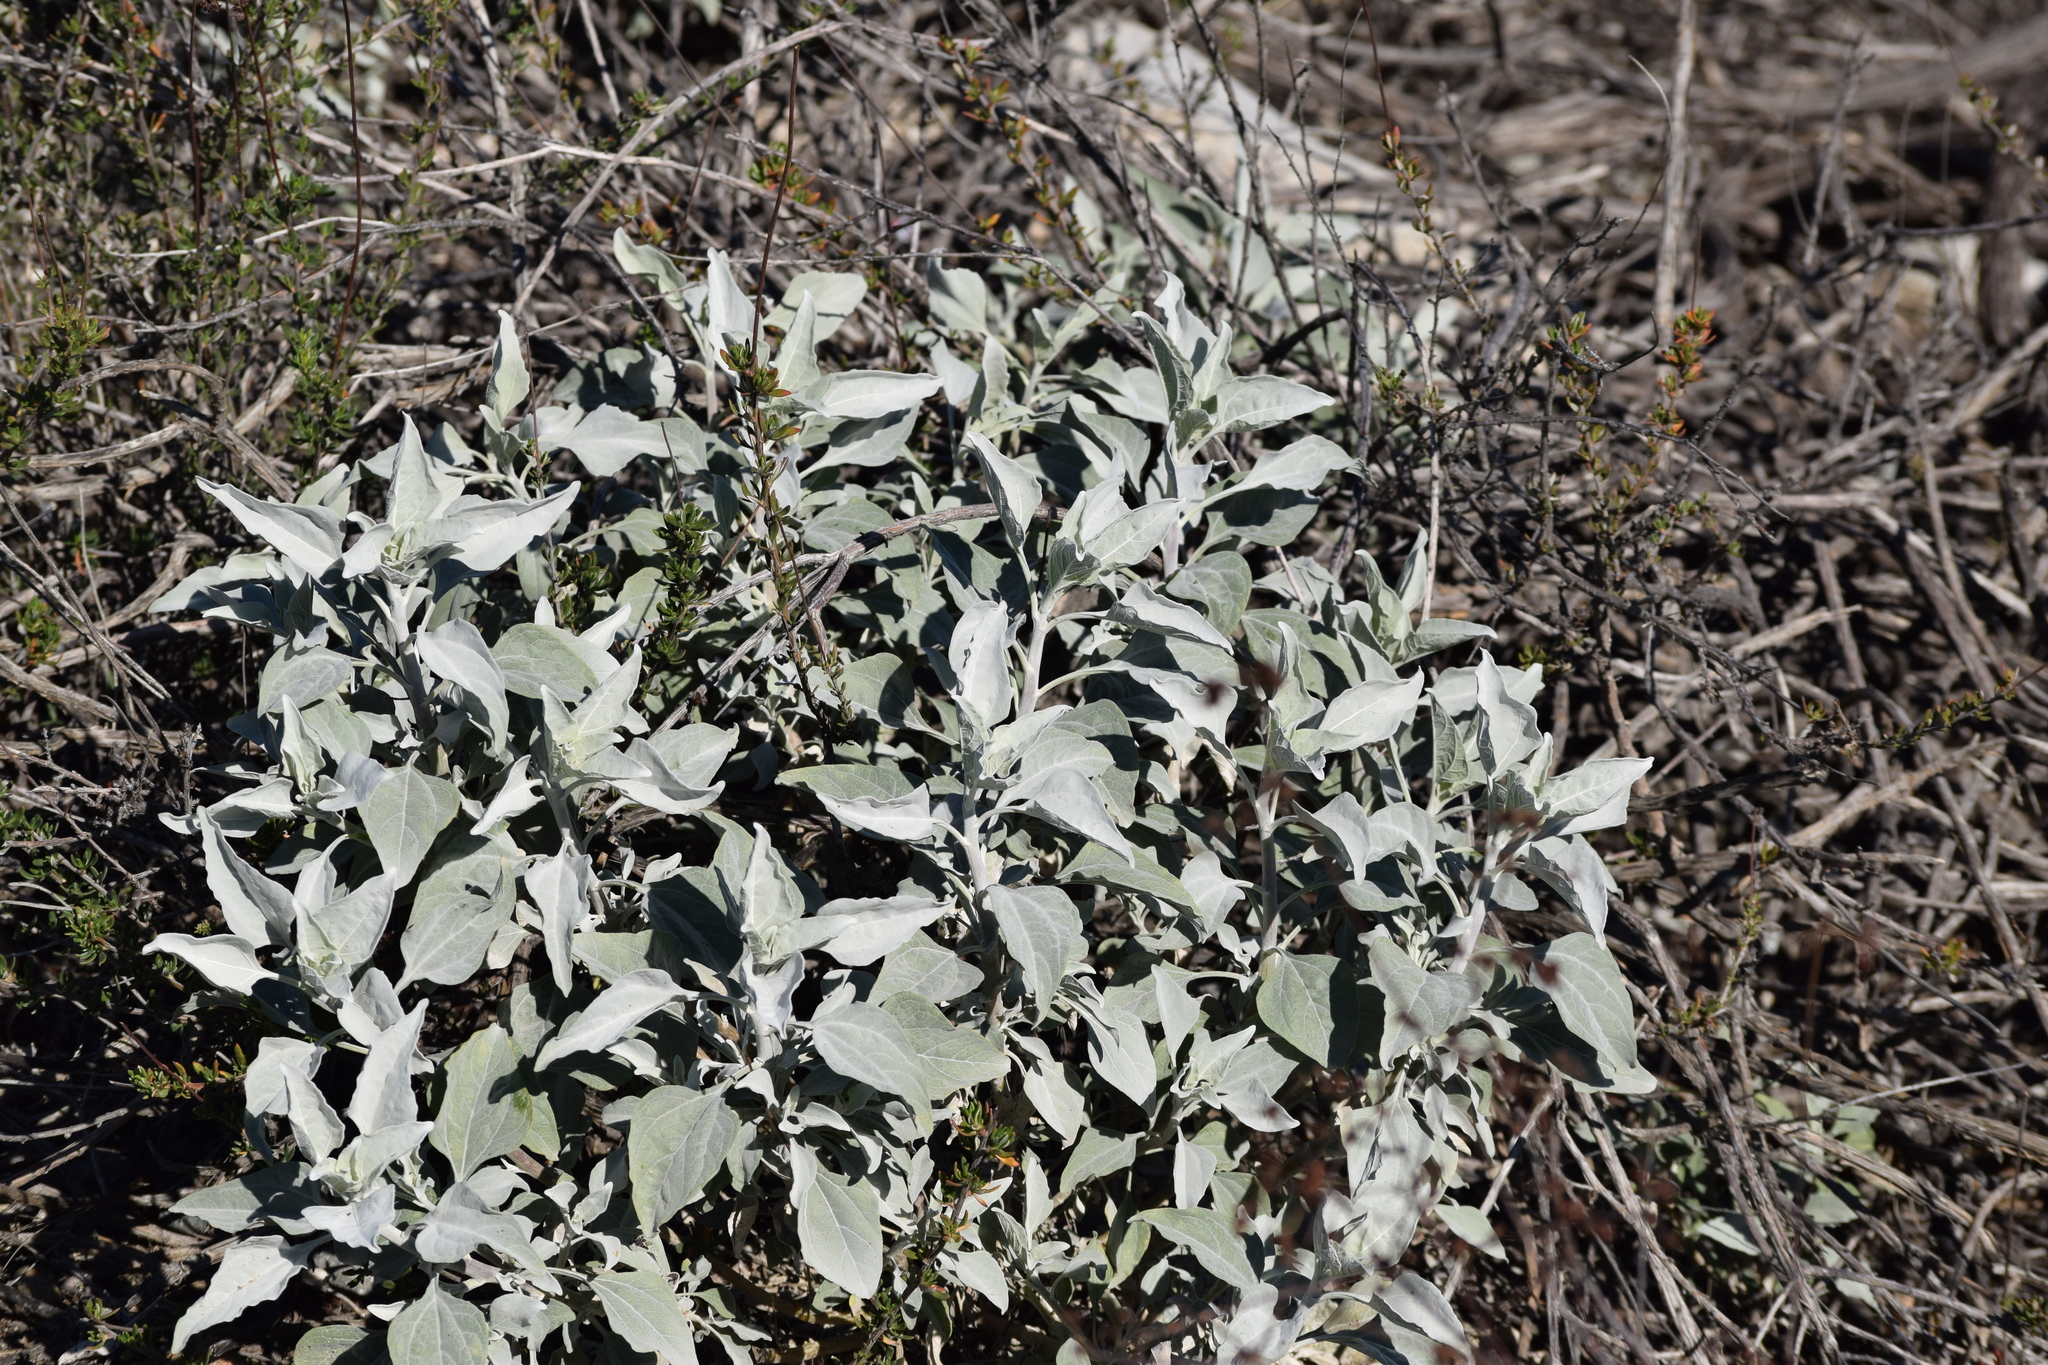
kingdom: Plantae
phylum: Tracheophyta
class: Magnoliopsida
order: Asterales
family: Asteraceae
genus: Encelia
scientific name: Encelia farinosa
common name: Brittlebush
